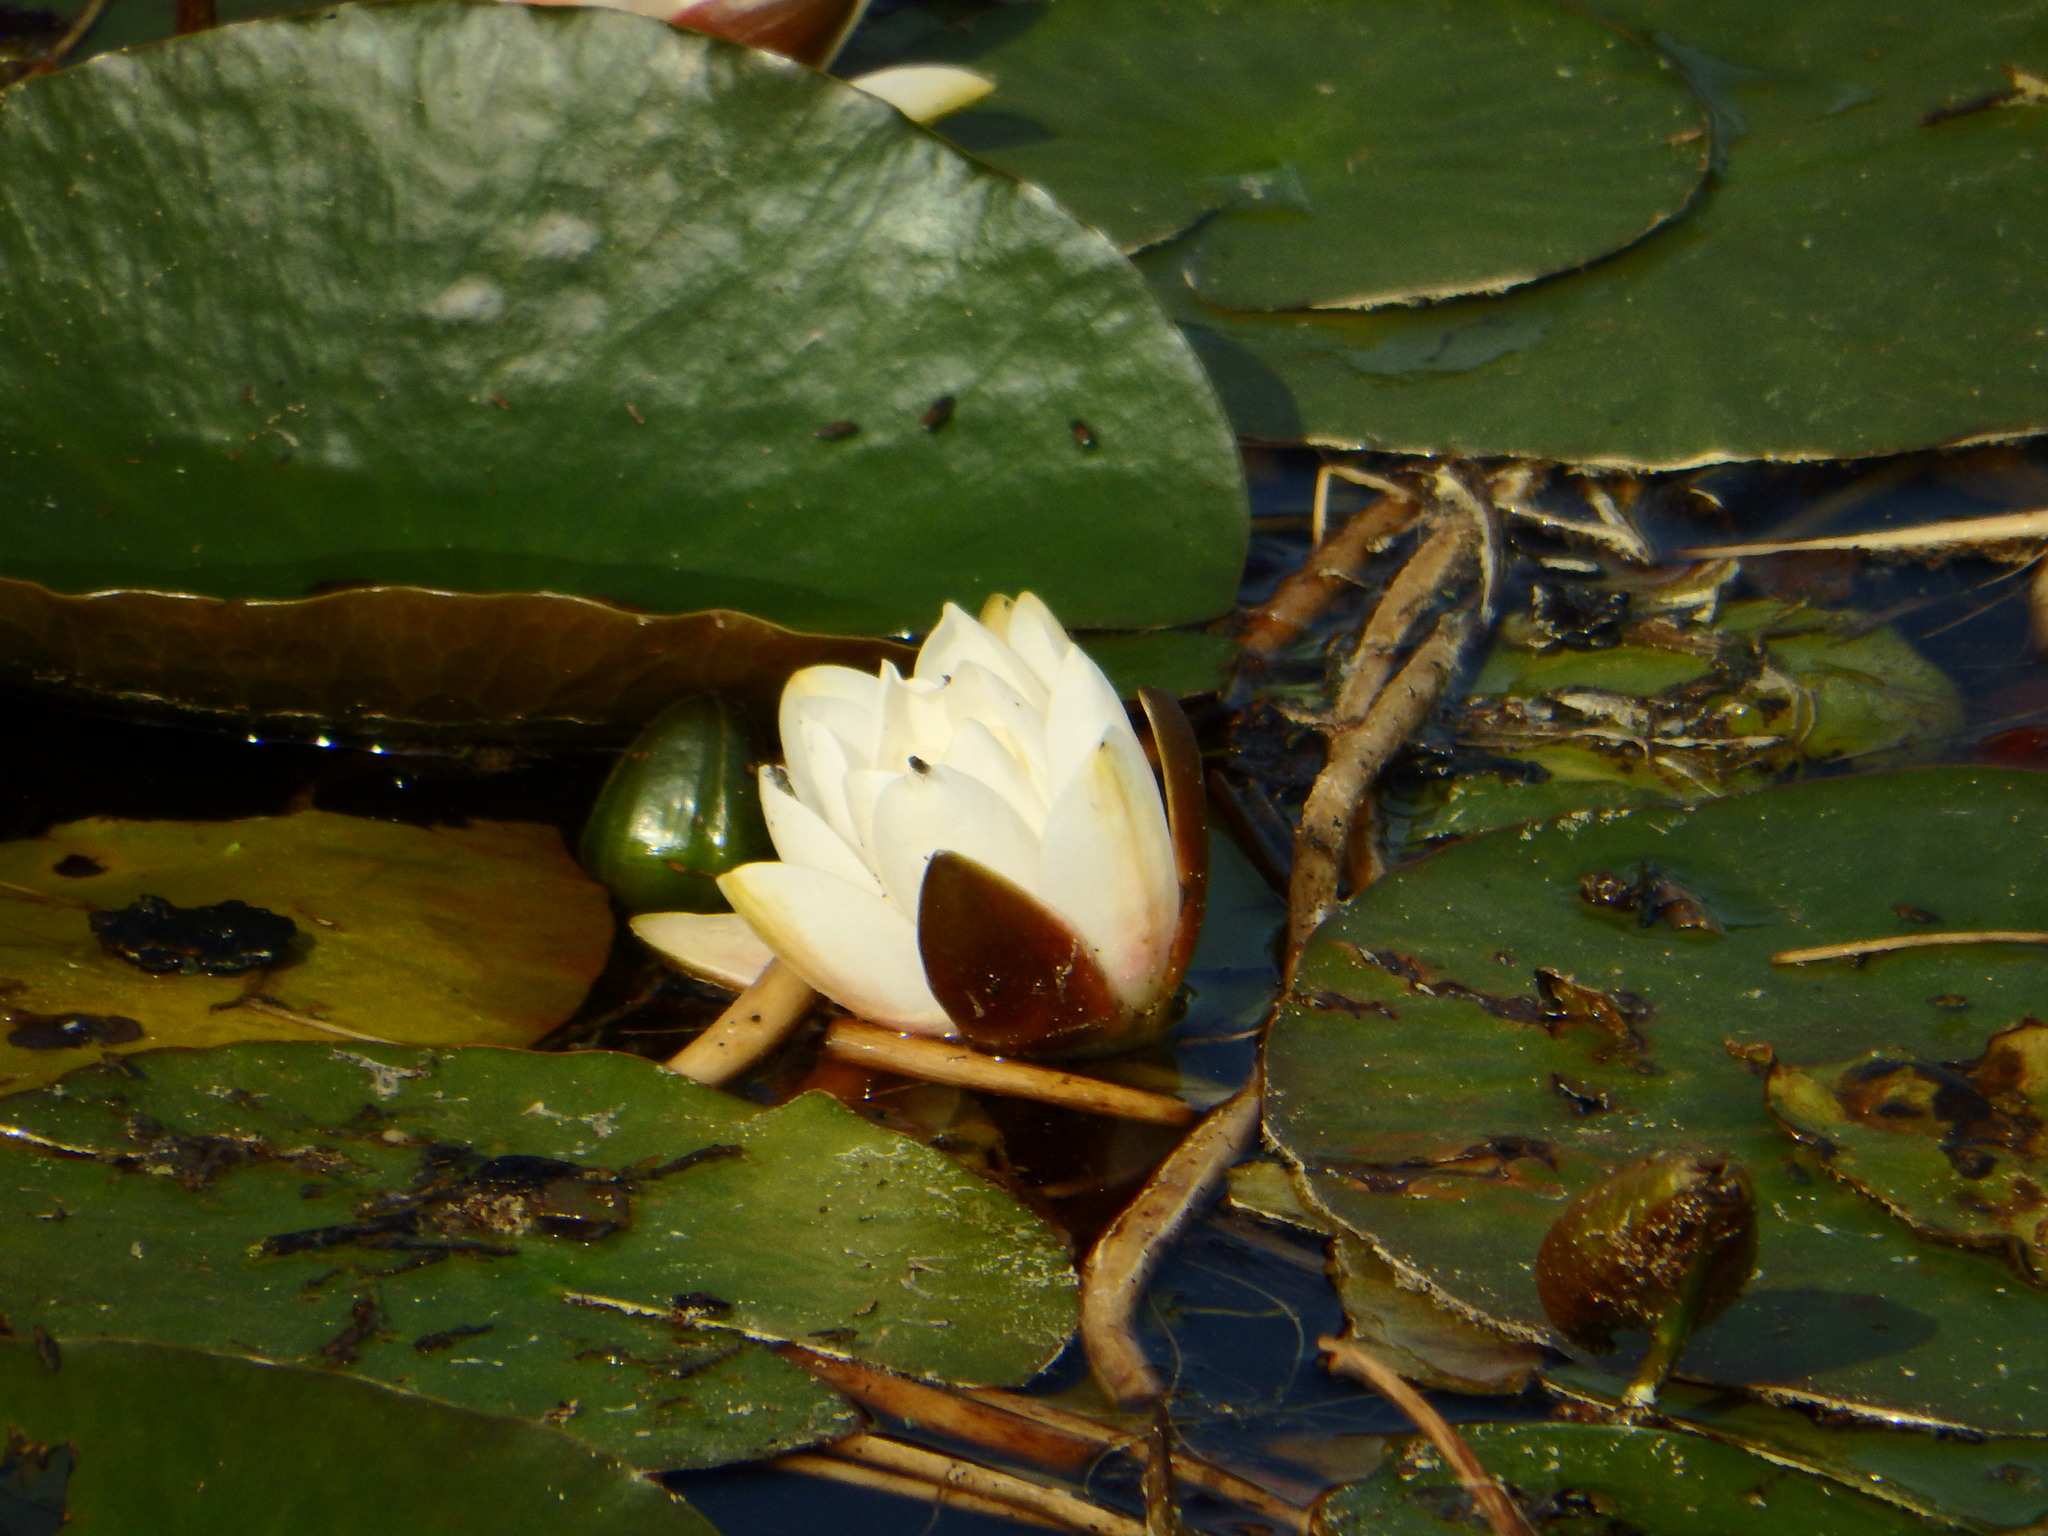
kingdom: Plantae
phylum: Tracheophyta
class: Magnoliopsida
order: Nymphaeales
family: Nymphaeaceae
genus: Nymphaea
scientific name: Nymphaea alba
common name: White water-lily
